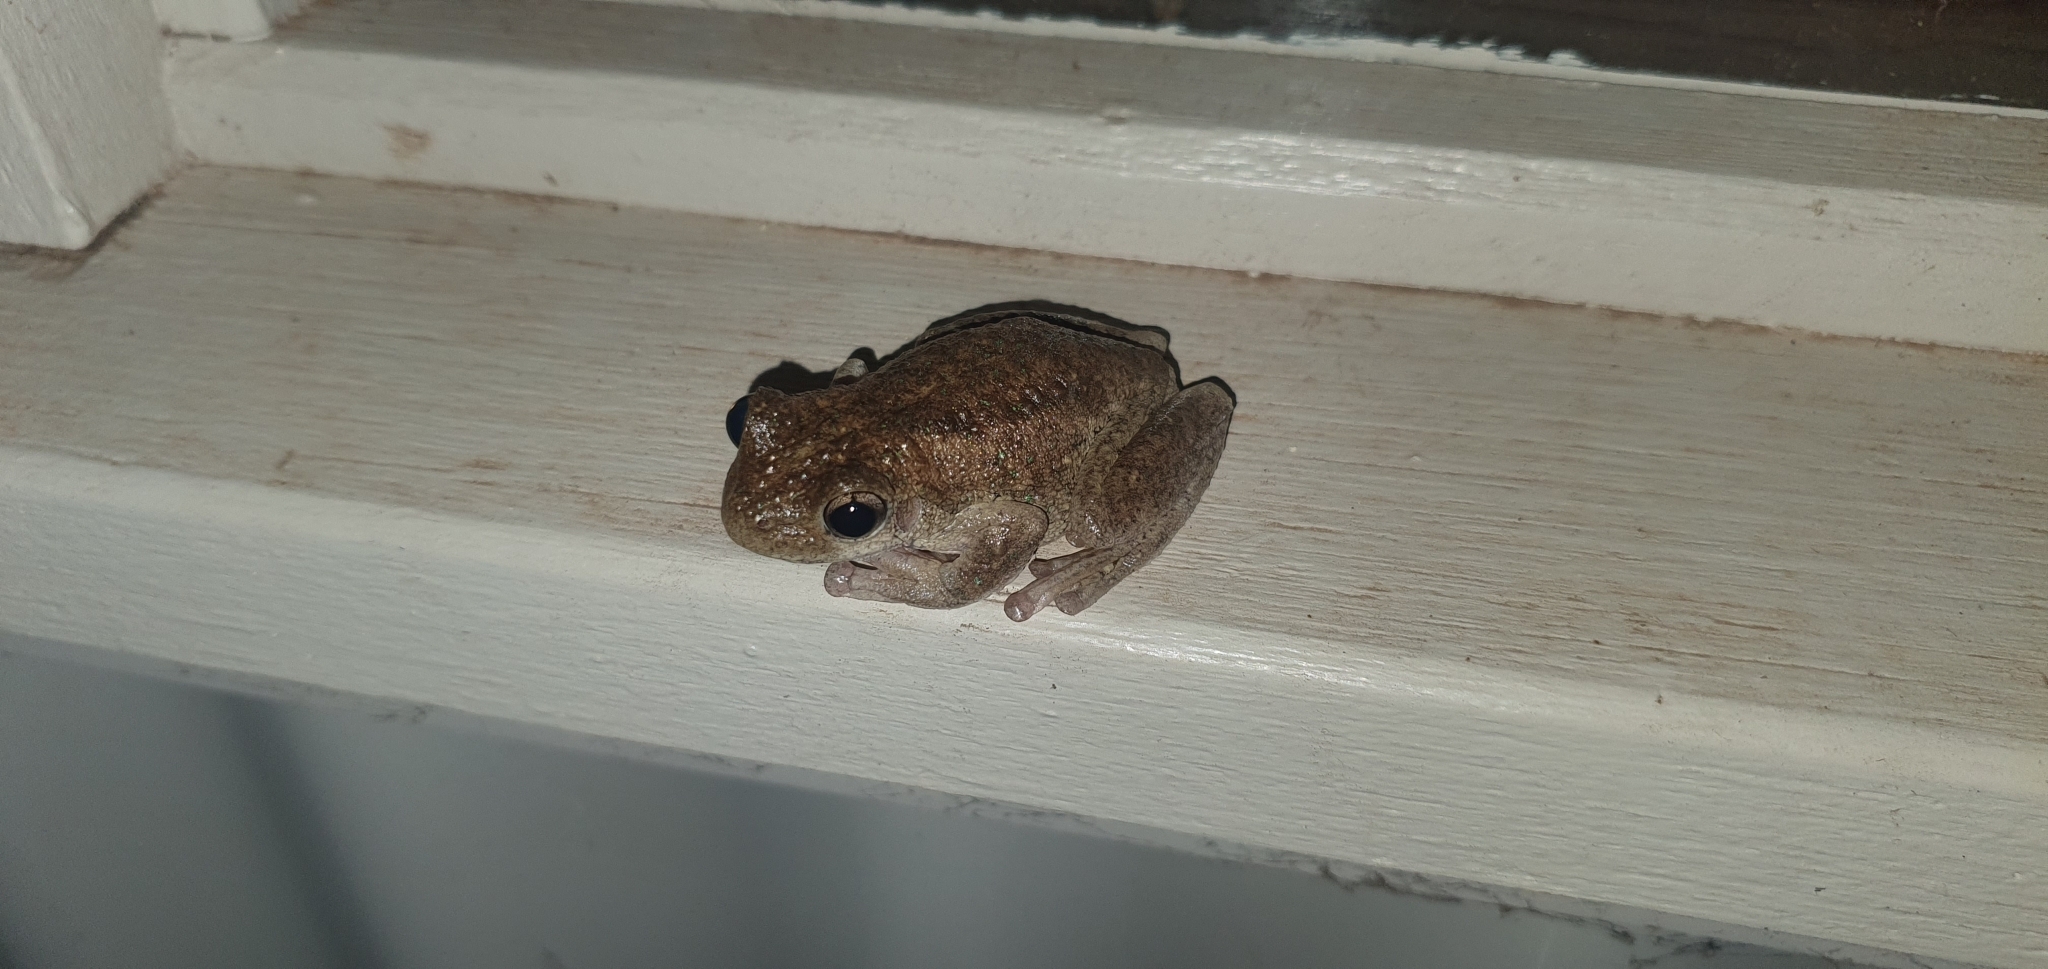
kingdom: Animalia
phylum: Chordata
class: Amphibia
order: Anura
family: Pelodryadidae
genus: Litoria
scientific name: Litoria peronii
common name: Emerald spotted treefrog
